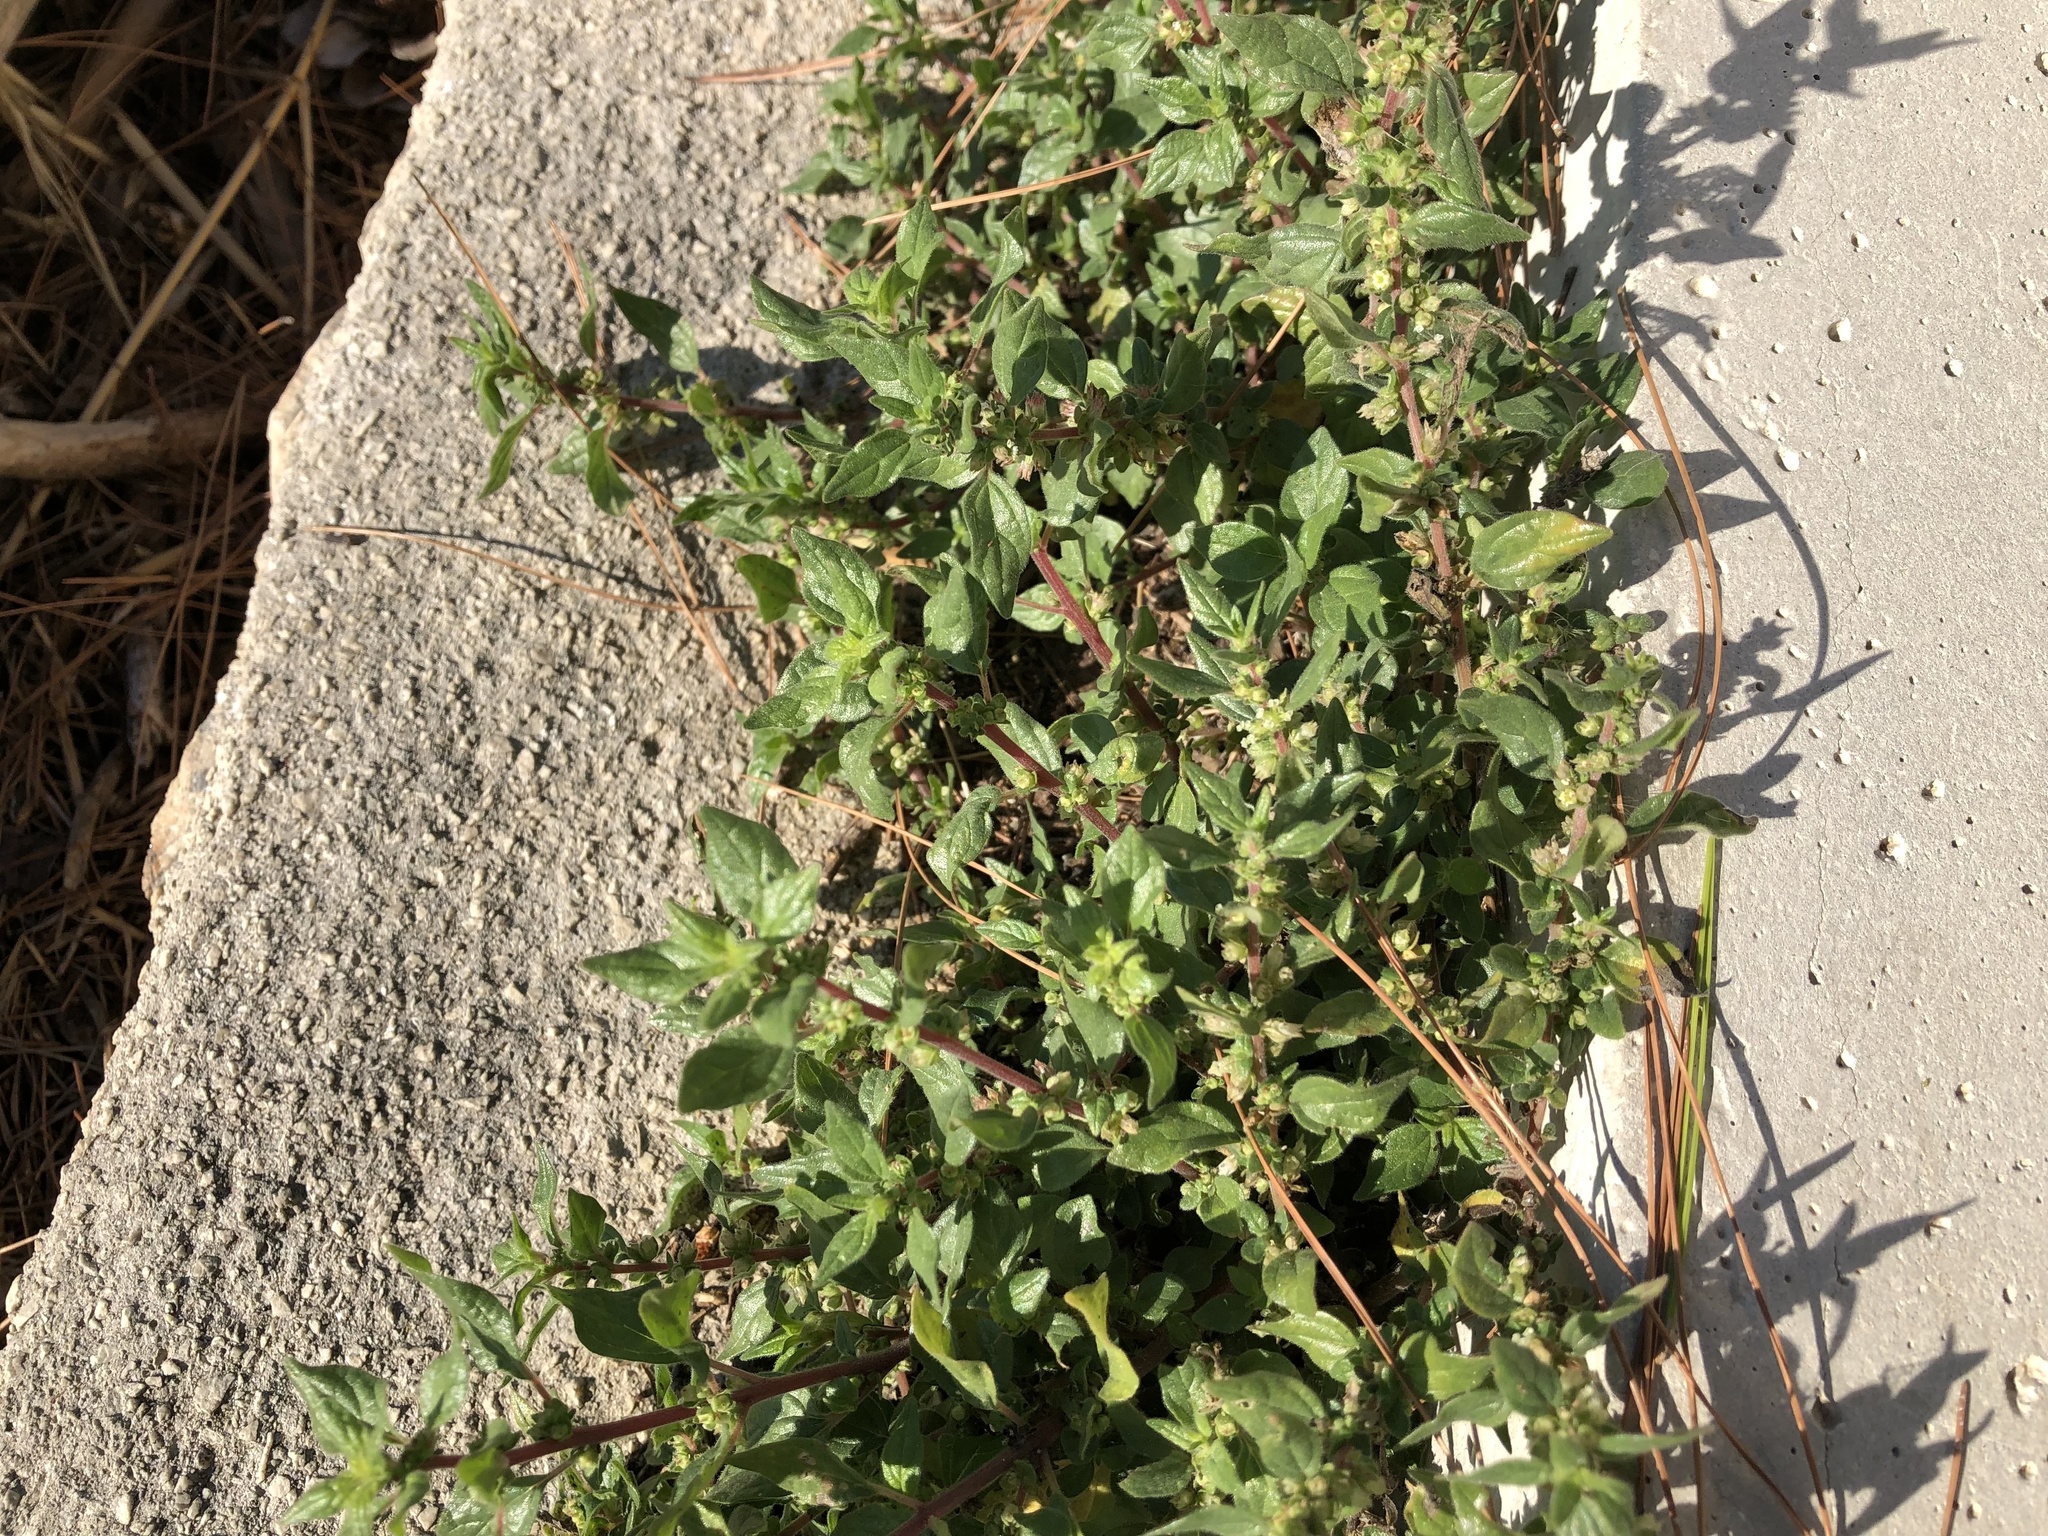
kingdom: Plantae
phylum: Tracheophyta
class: Magnoliopsida
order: Rosales
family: Urticaceae
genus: Parietaria
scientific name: Parietaria judaica
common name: Pellitory-of-the-wall
